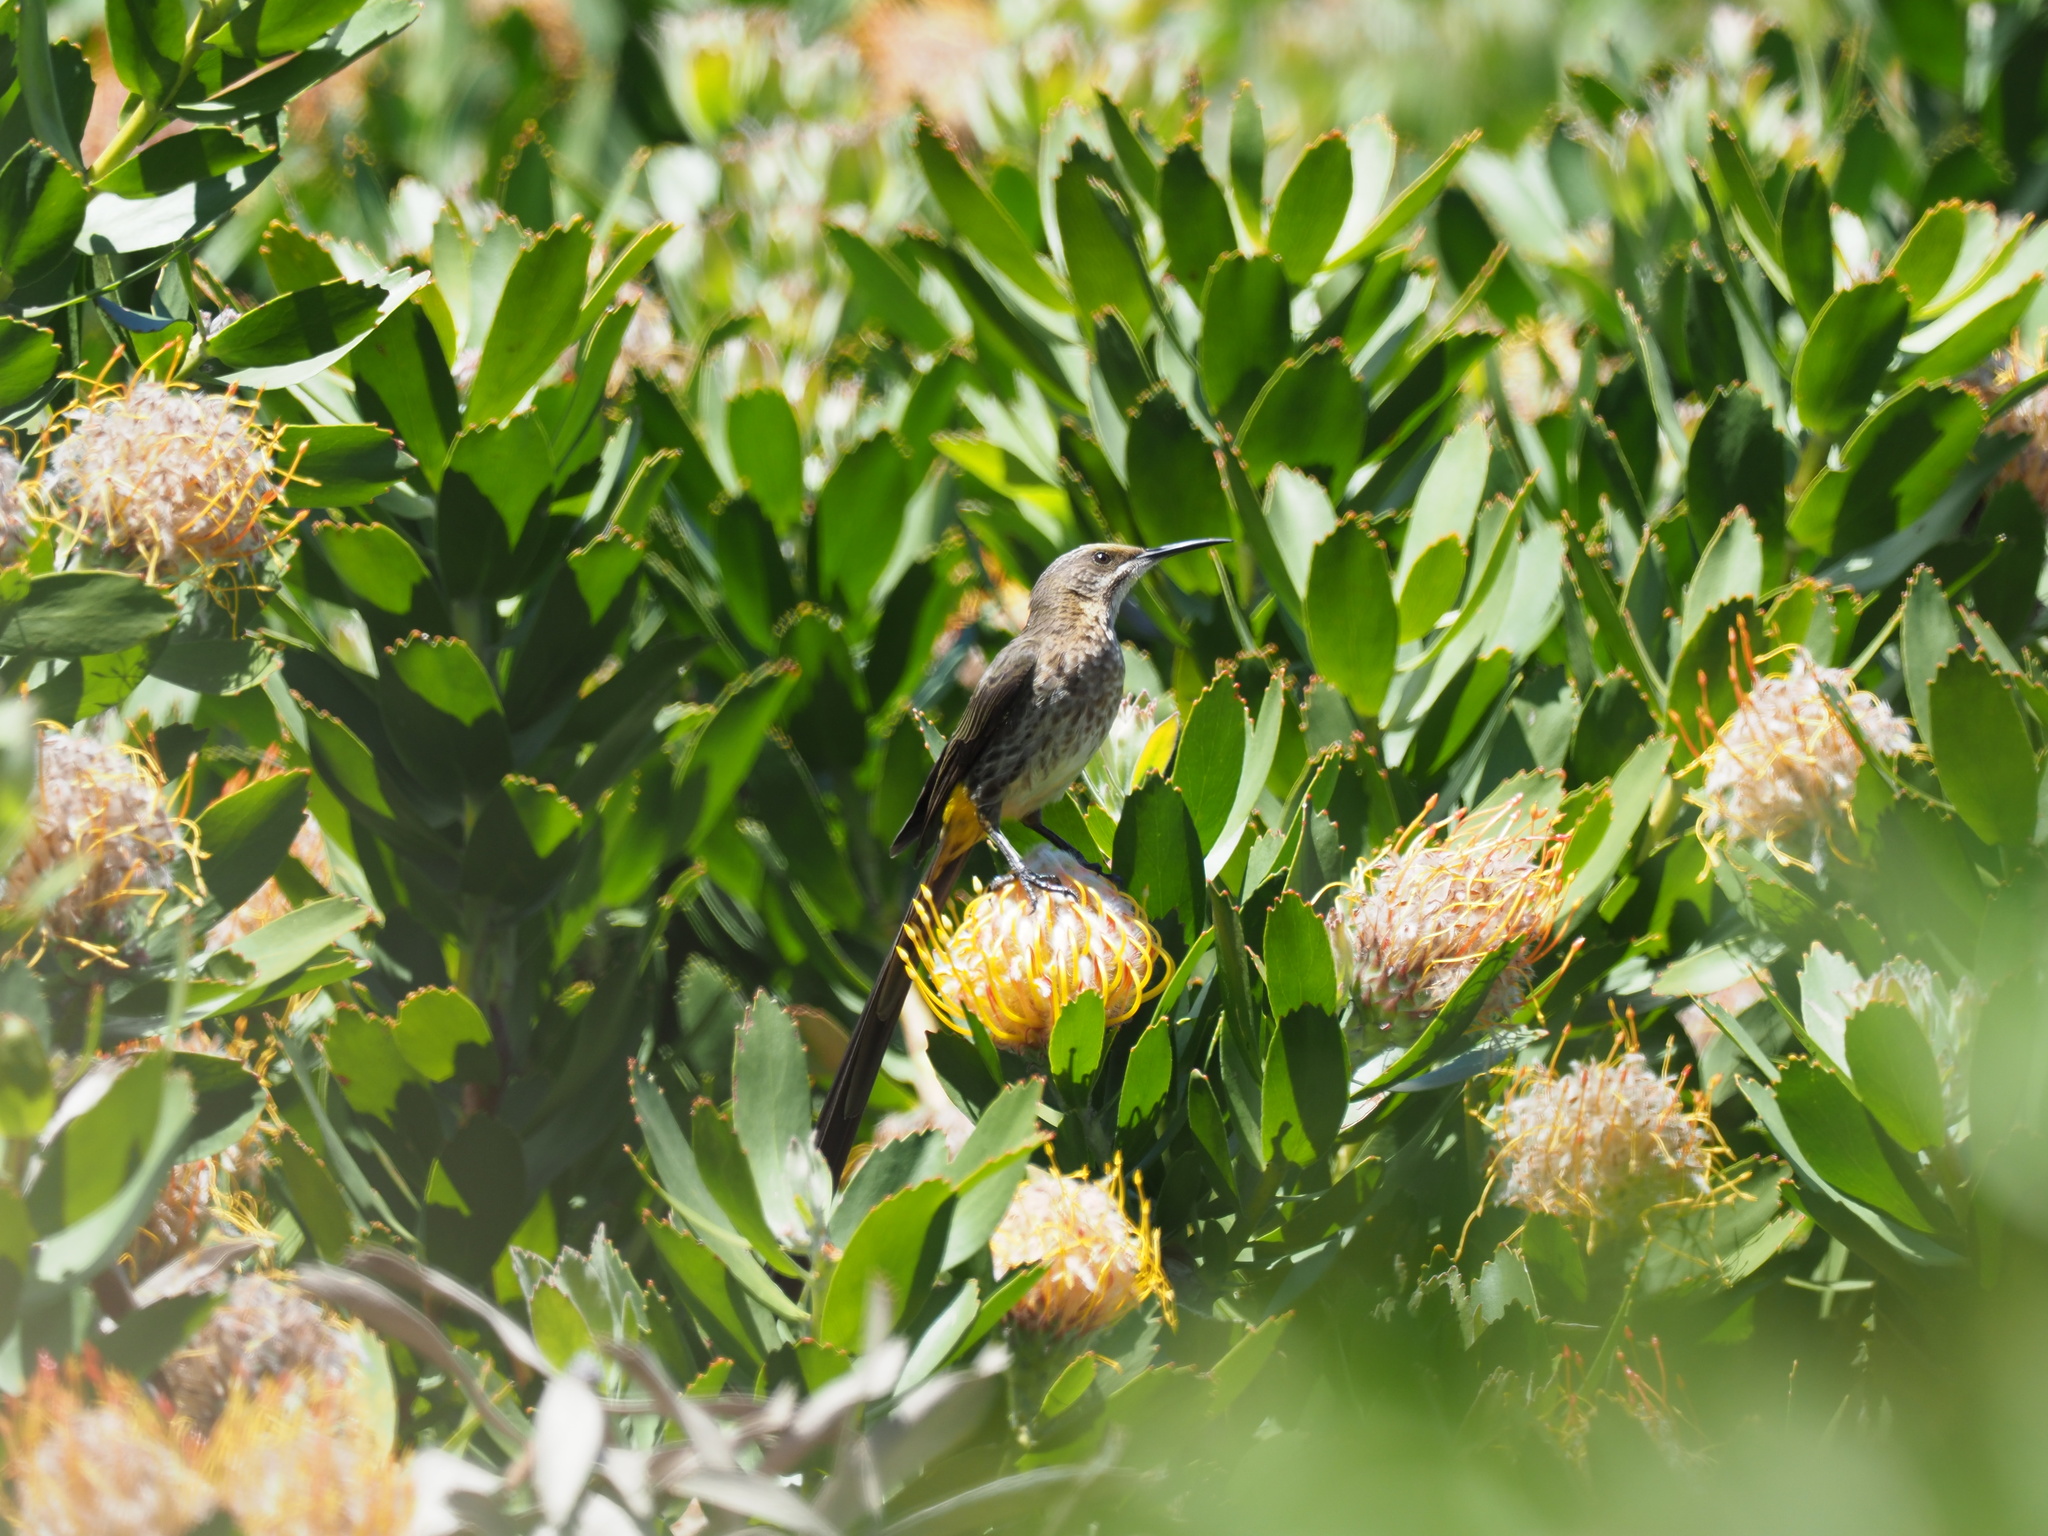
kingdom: Animalia
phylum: Chordata
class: Aves
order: Passeriformes
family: Promeropidae
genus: Promerops
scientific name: Promerops cafer
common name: Cape sugarbird
